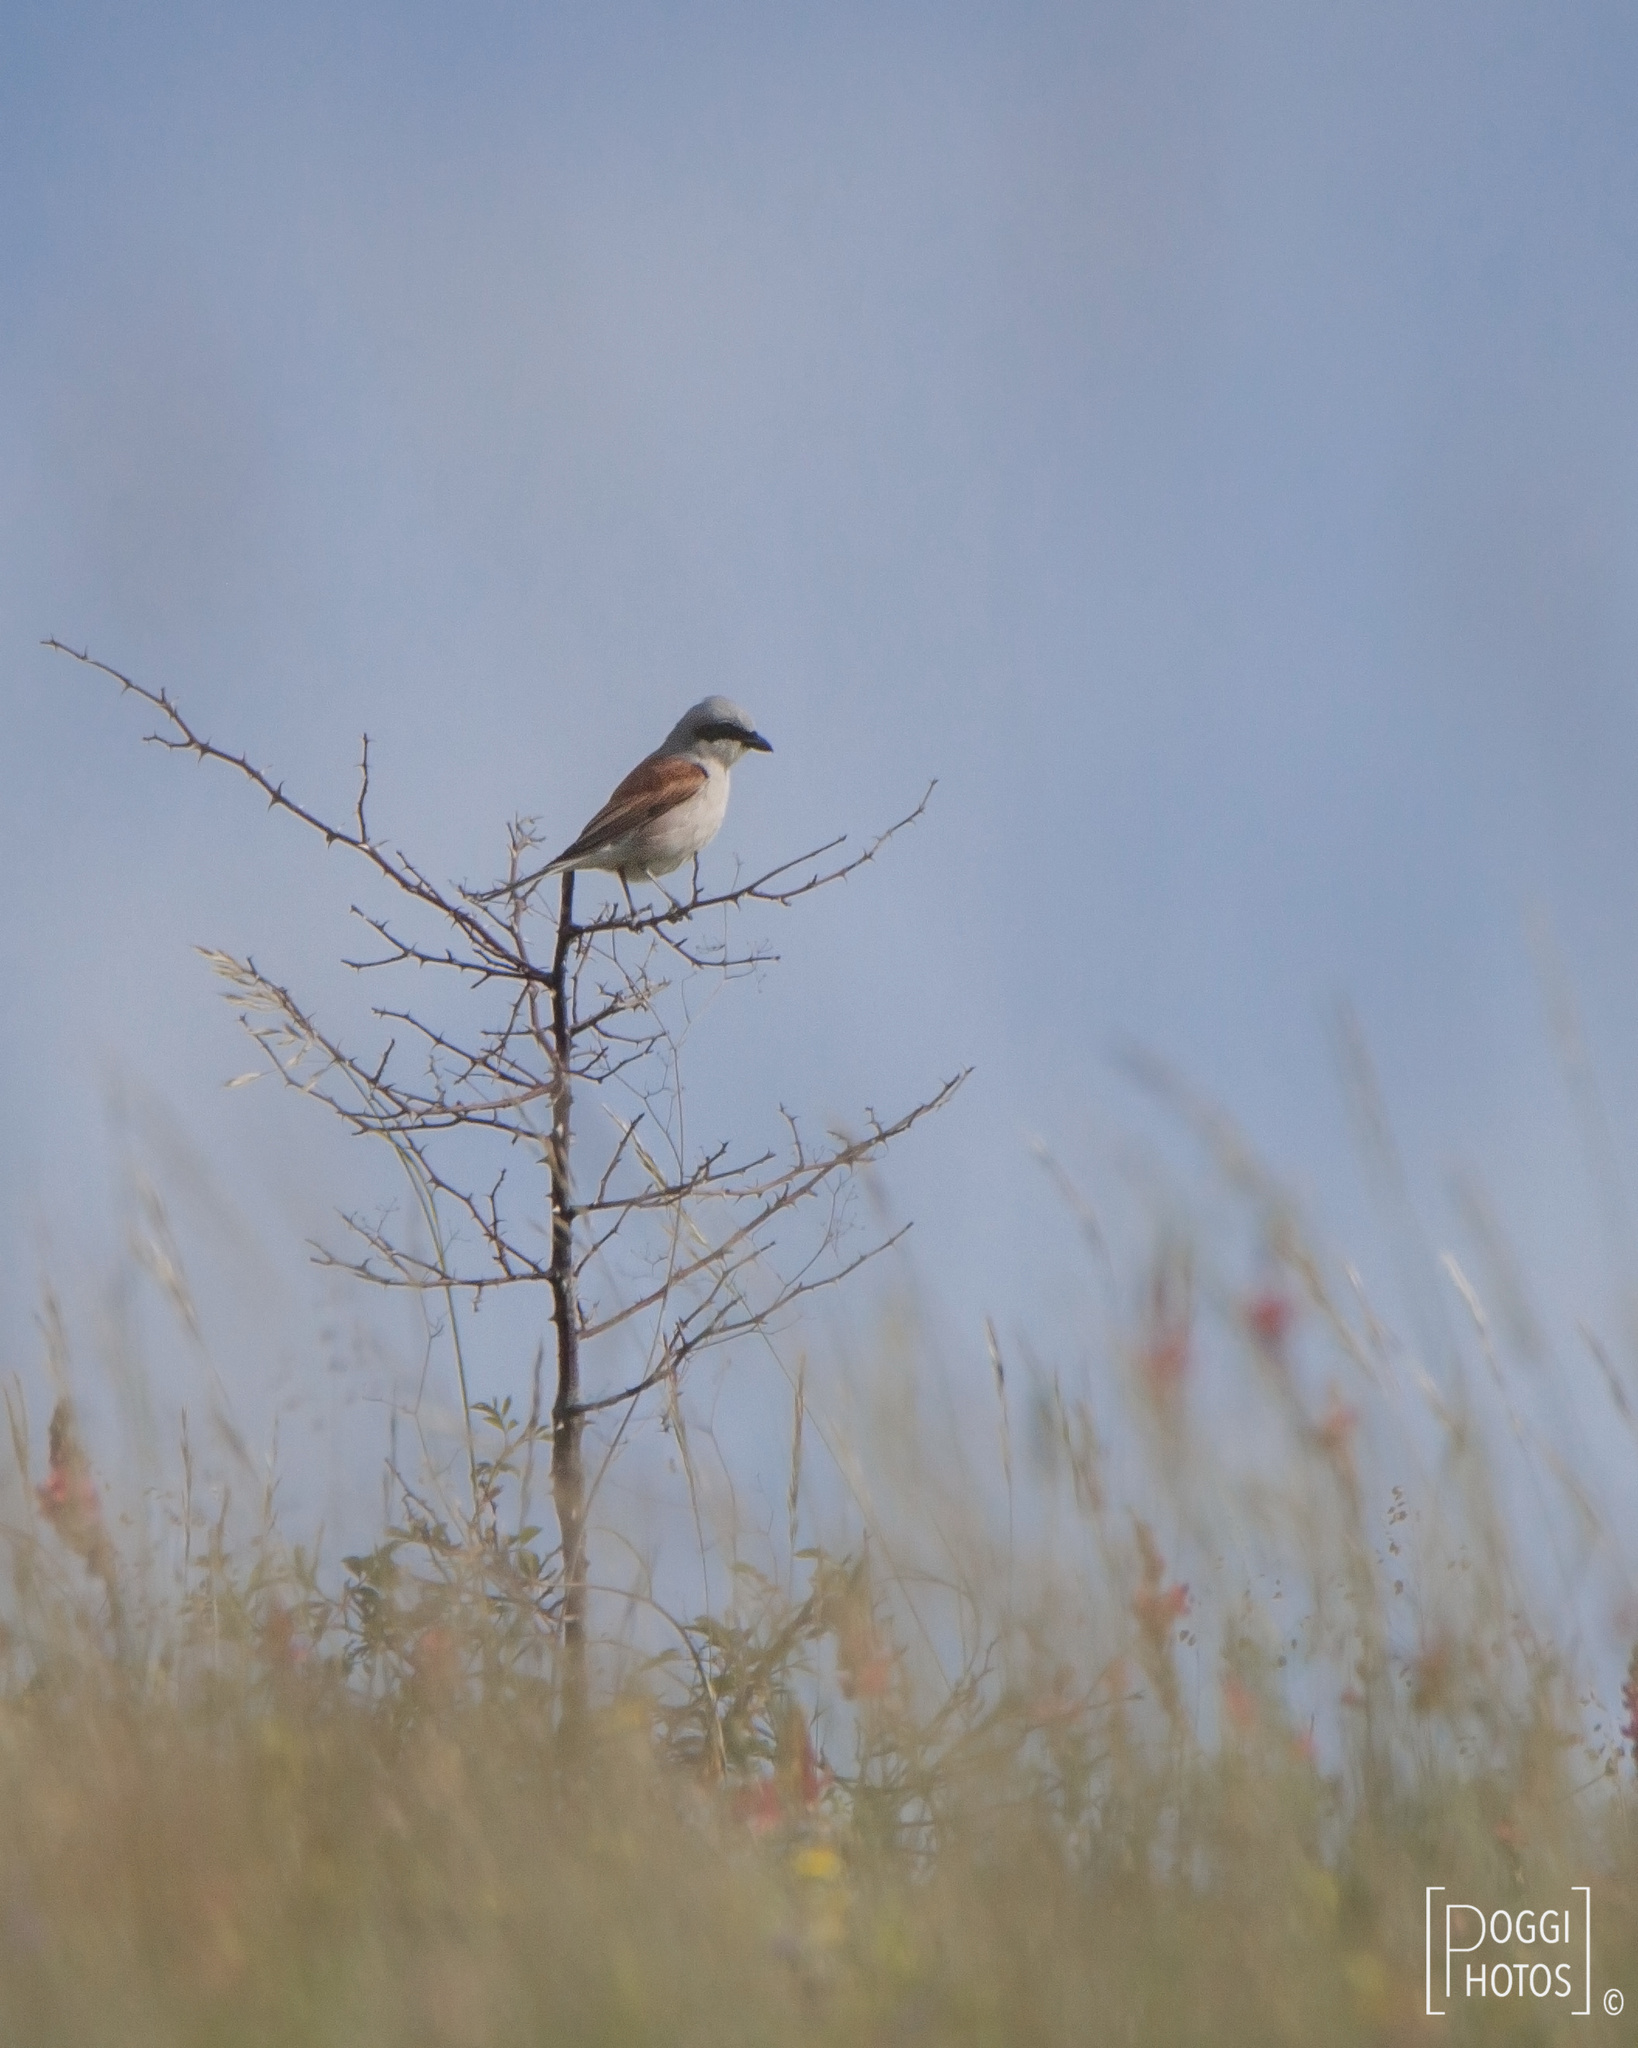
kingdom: Animalia
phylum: Chordata
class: Aves
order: Passeriformes
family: Laniidae
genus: Lanius
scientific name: Lanius collurio
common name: Red-backed shrike
